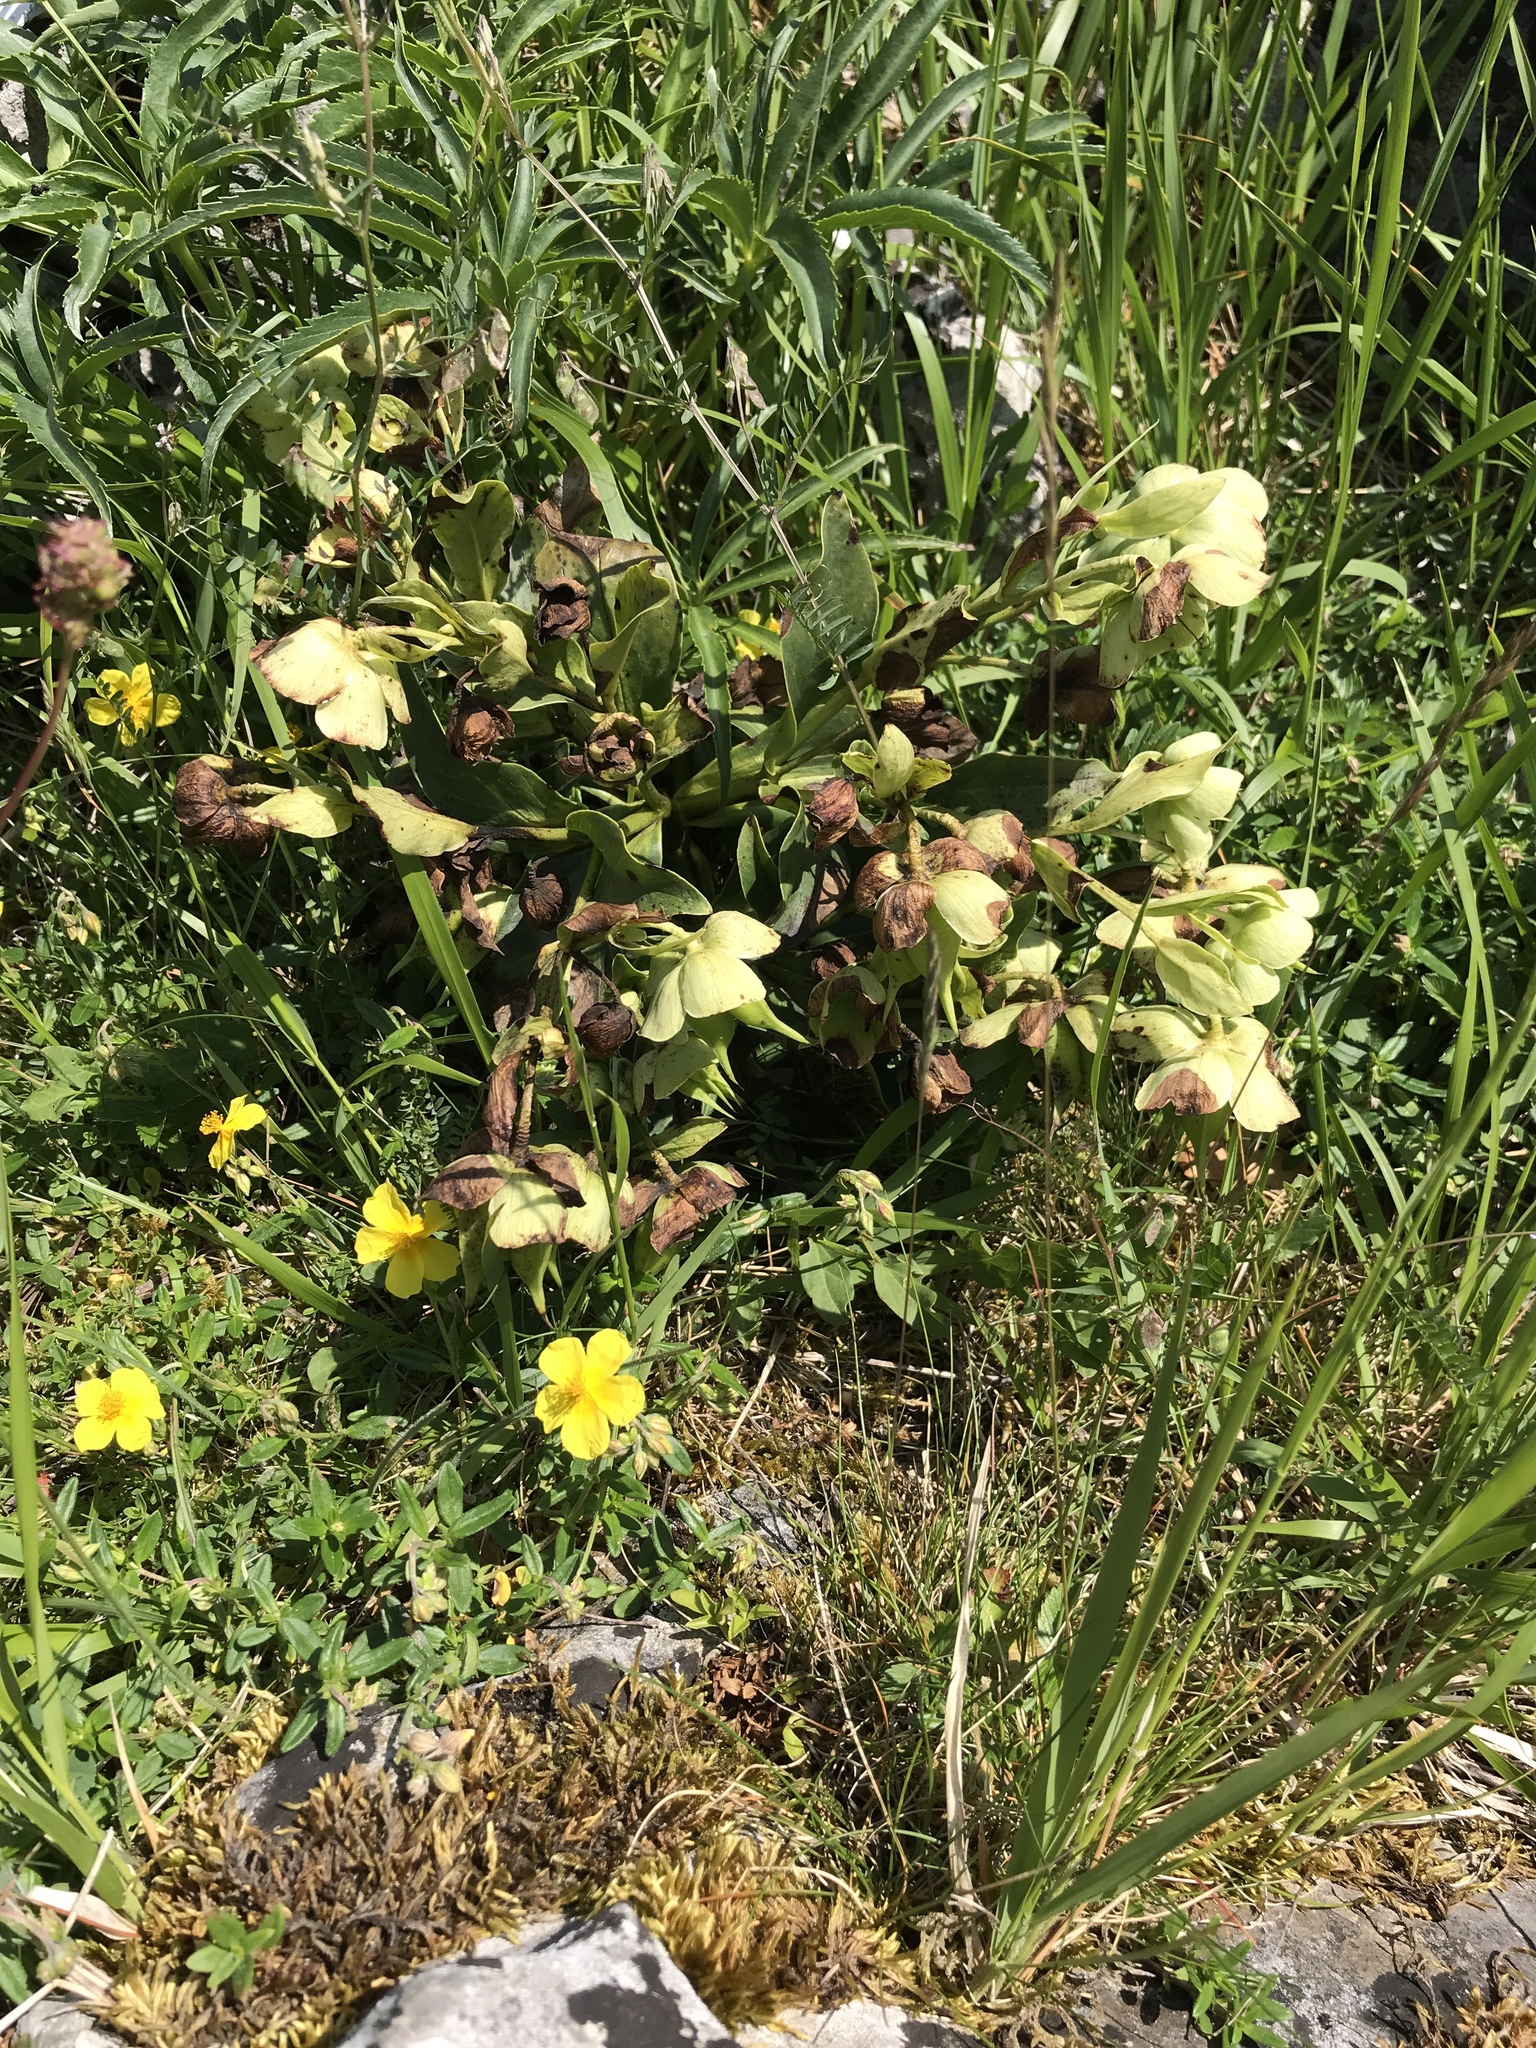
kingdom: Plantae
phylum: Tracheophyta
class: Magnoliopsida
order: Ranunculales
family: Ranunculaceae
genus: Helleborus
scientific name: Helleborus foetidus
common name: Stinking hellebore
